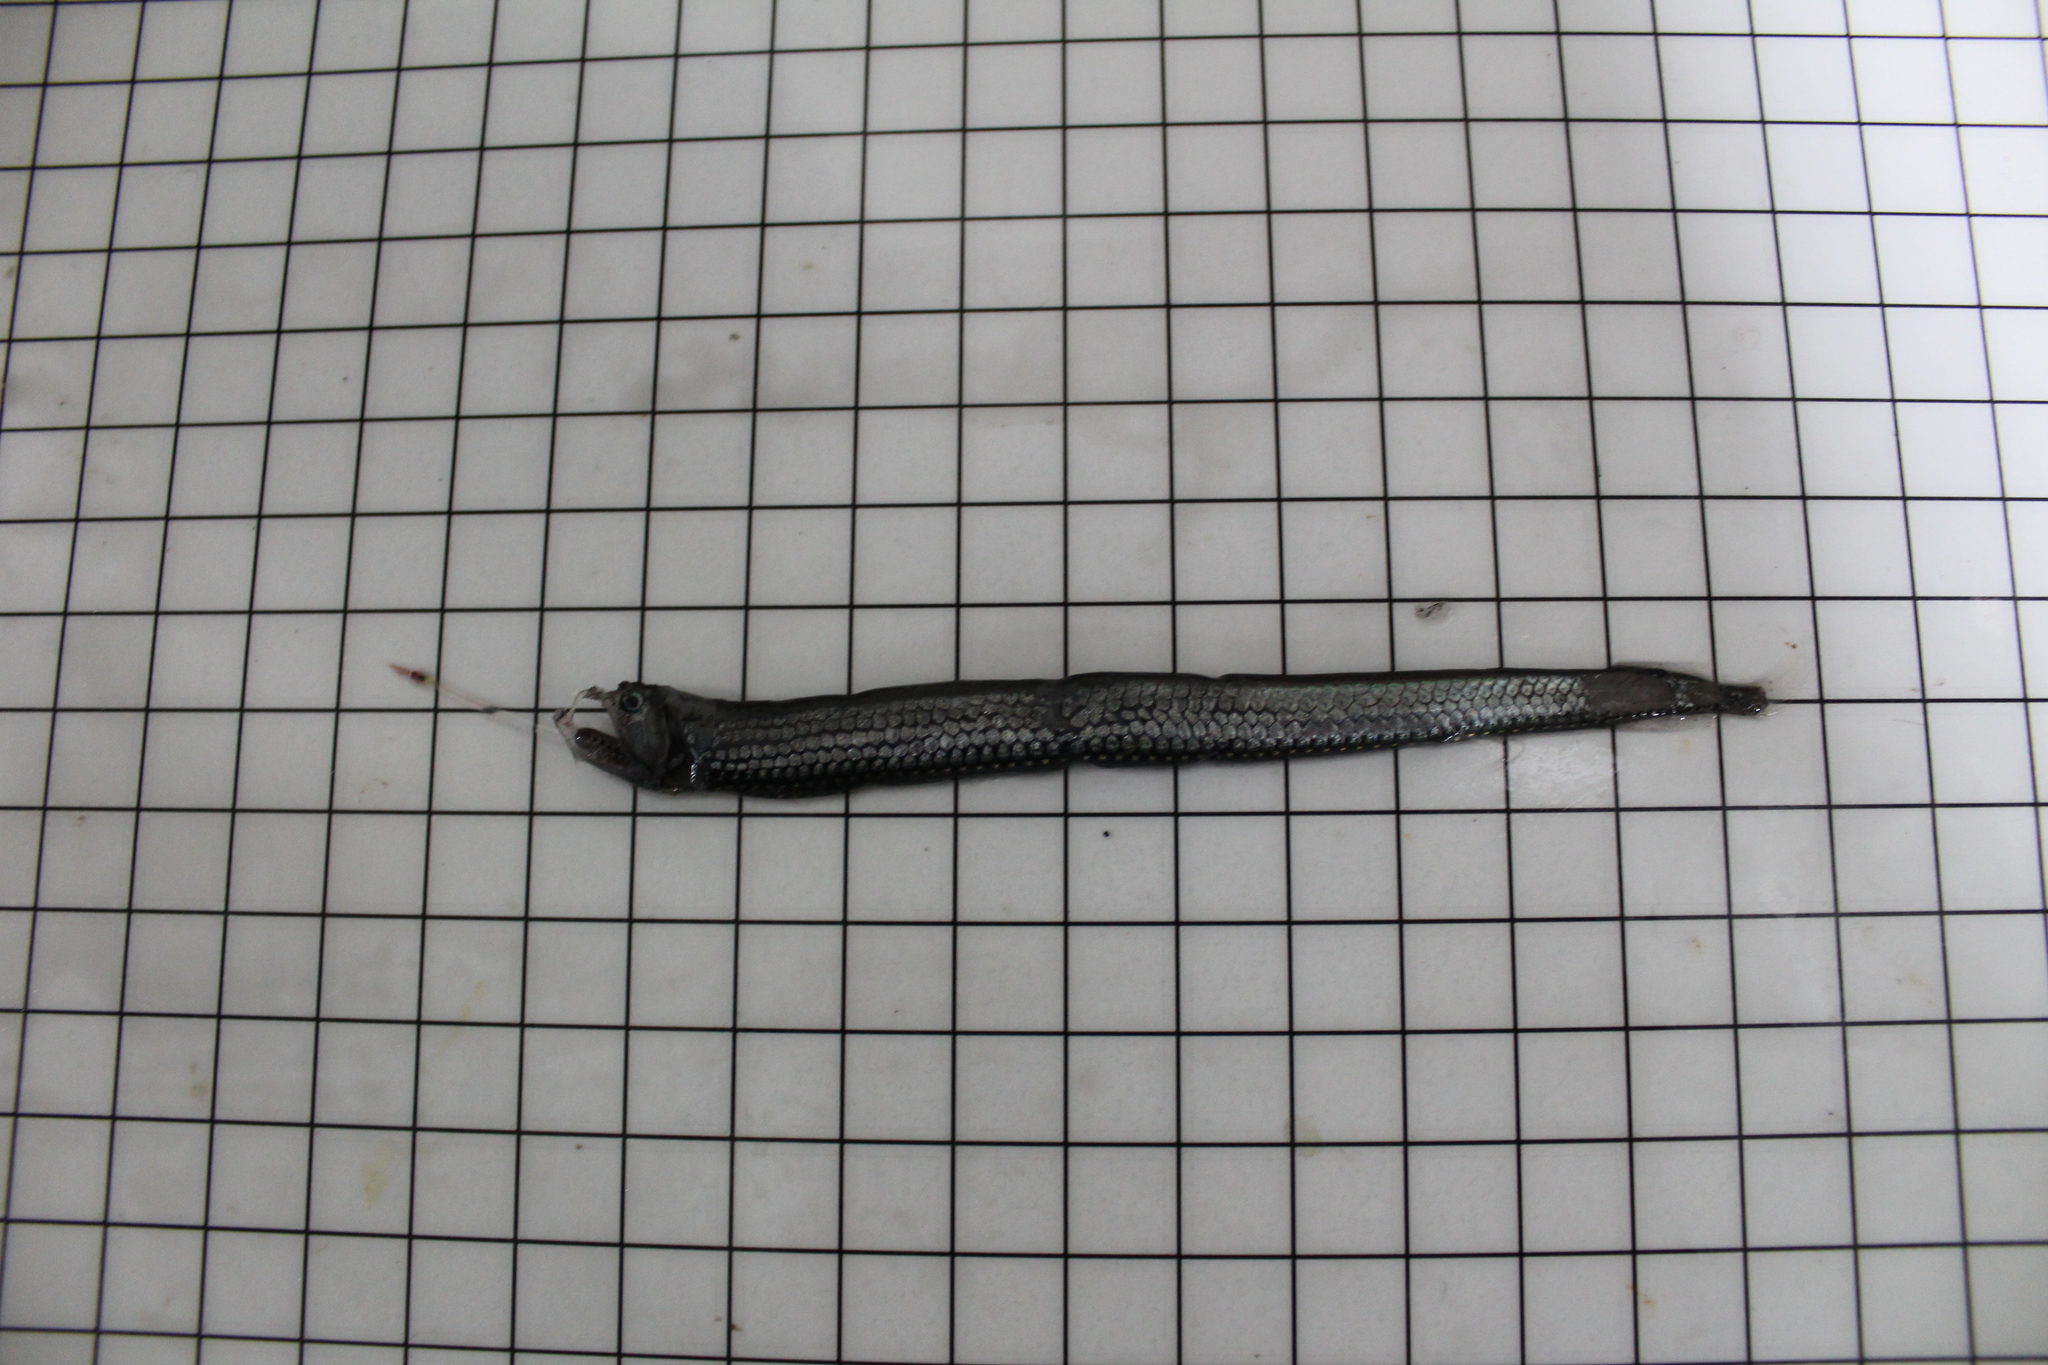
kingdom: Animalia
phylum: Chordata
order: Stomiiformes
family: Stomiidae
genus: Stomias
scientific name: Stomias boa
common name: Boa dragonfish
